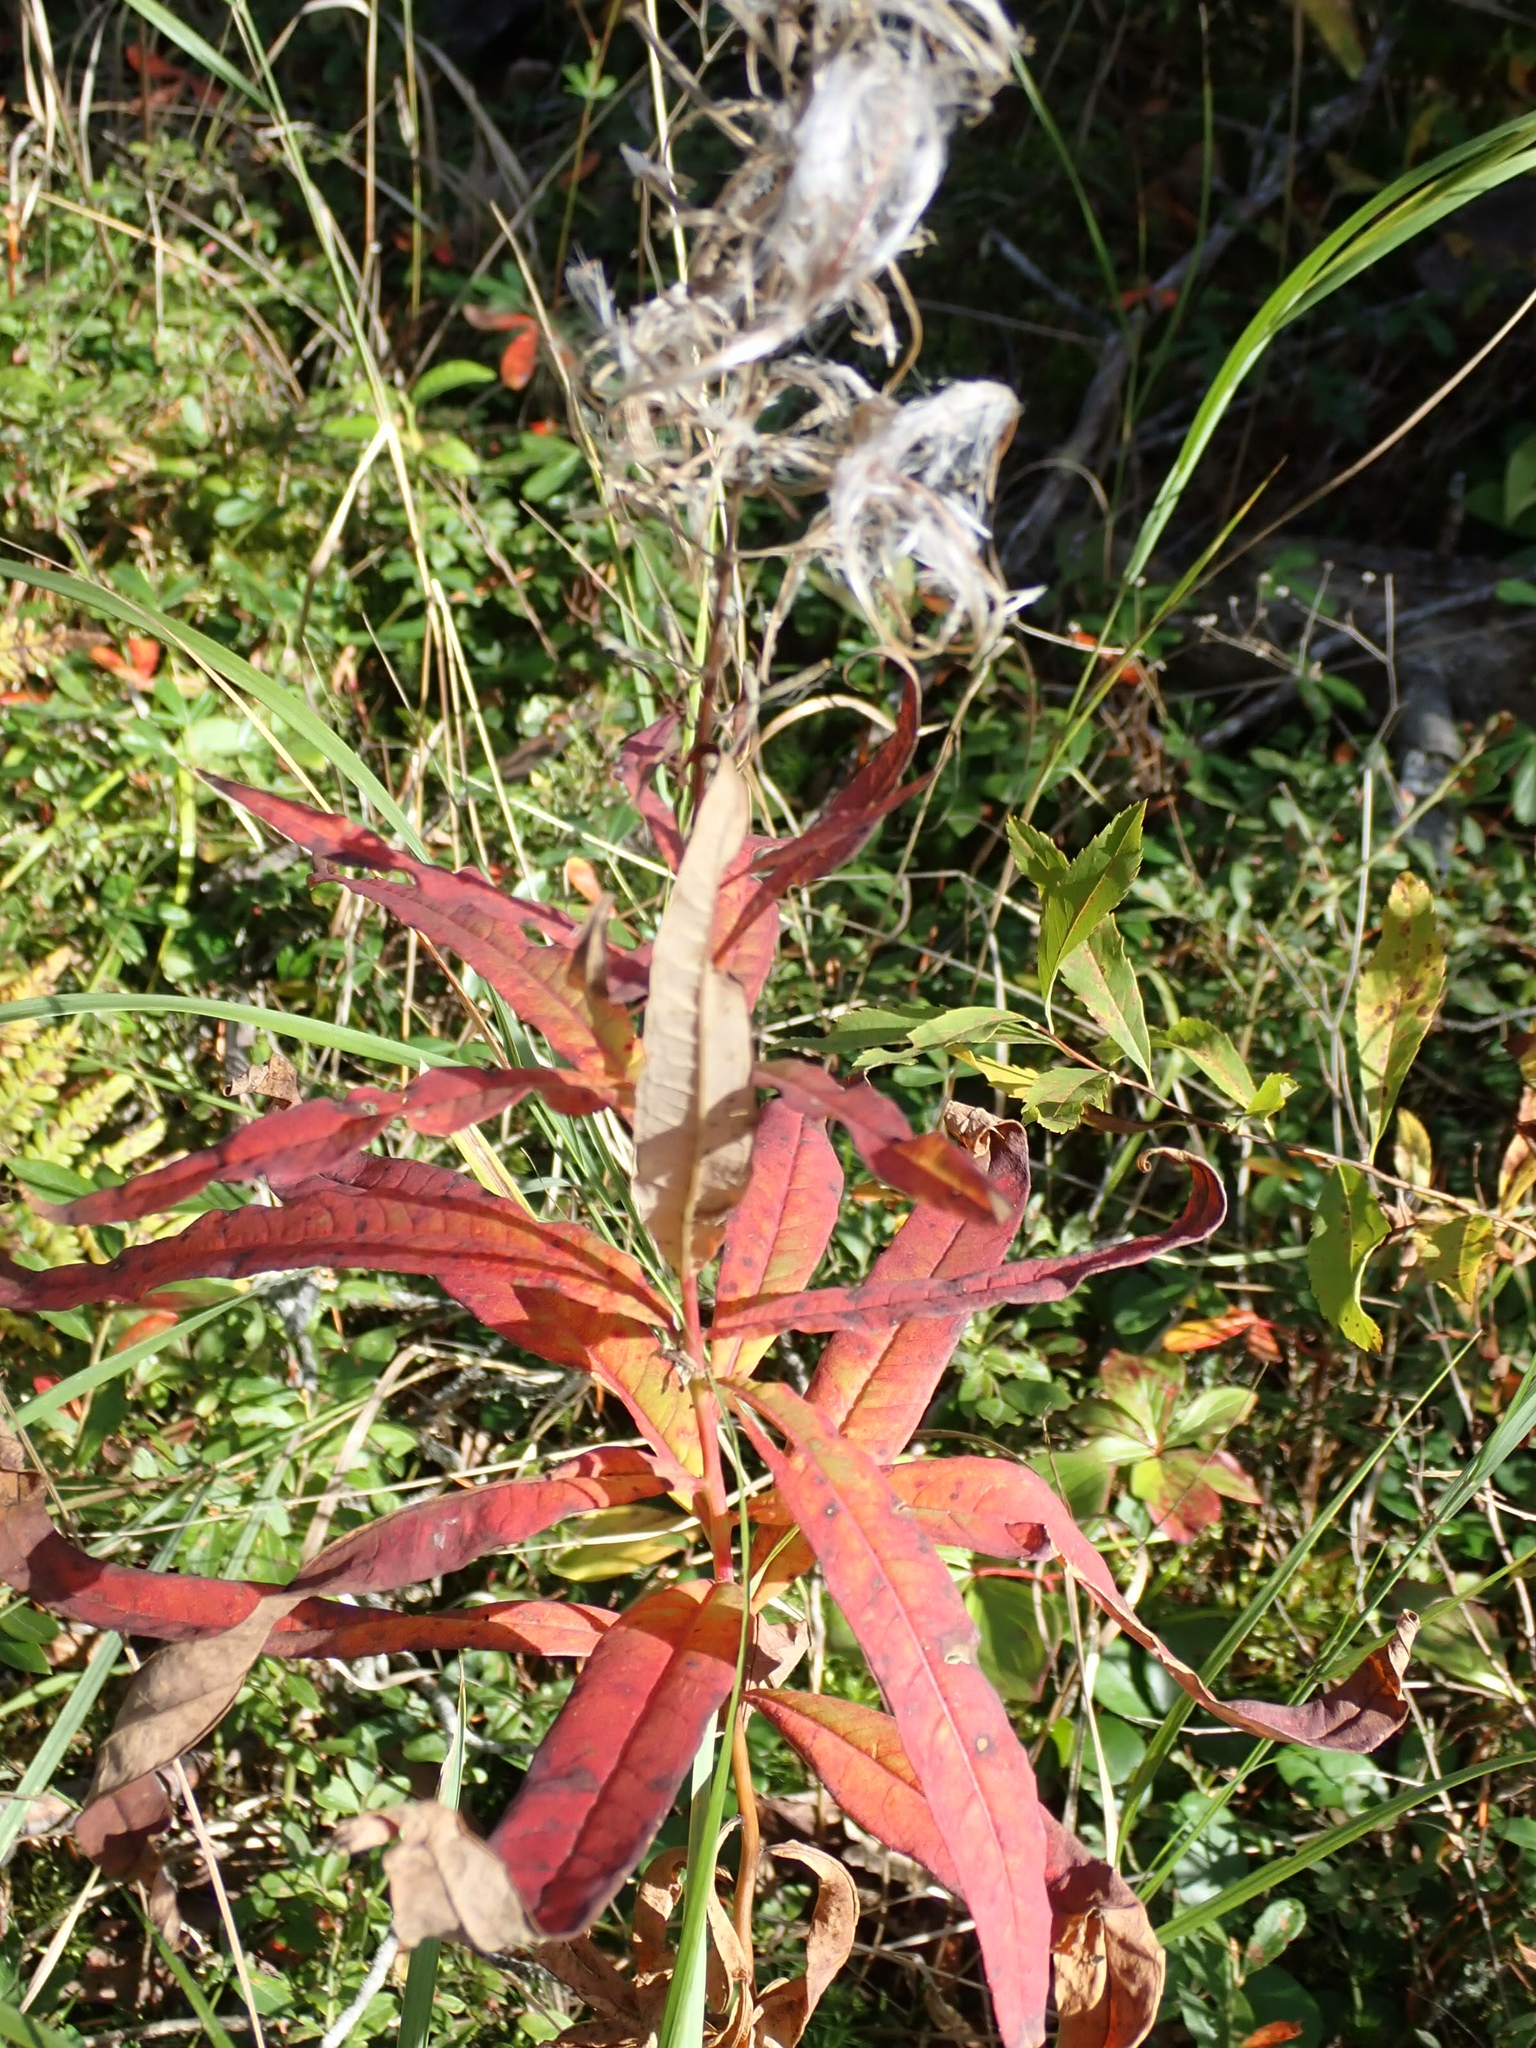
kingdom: Plantae
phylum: Tracheophyta
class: Magnoliopsida
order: Myrtales
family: Onagraceae
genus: Chamaenerion
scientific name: Chamaenerion angustifolium
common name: Fireweed
